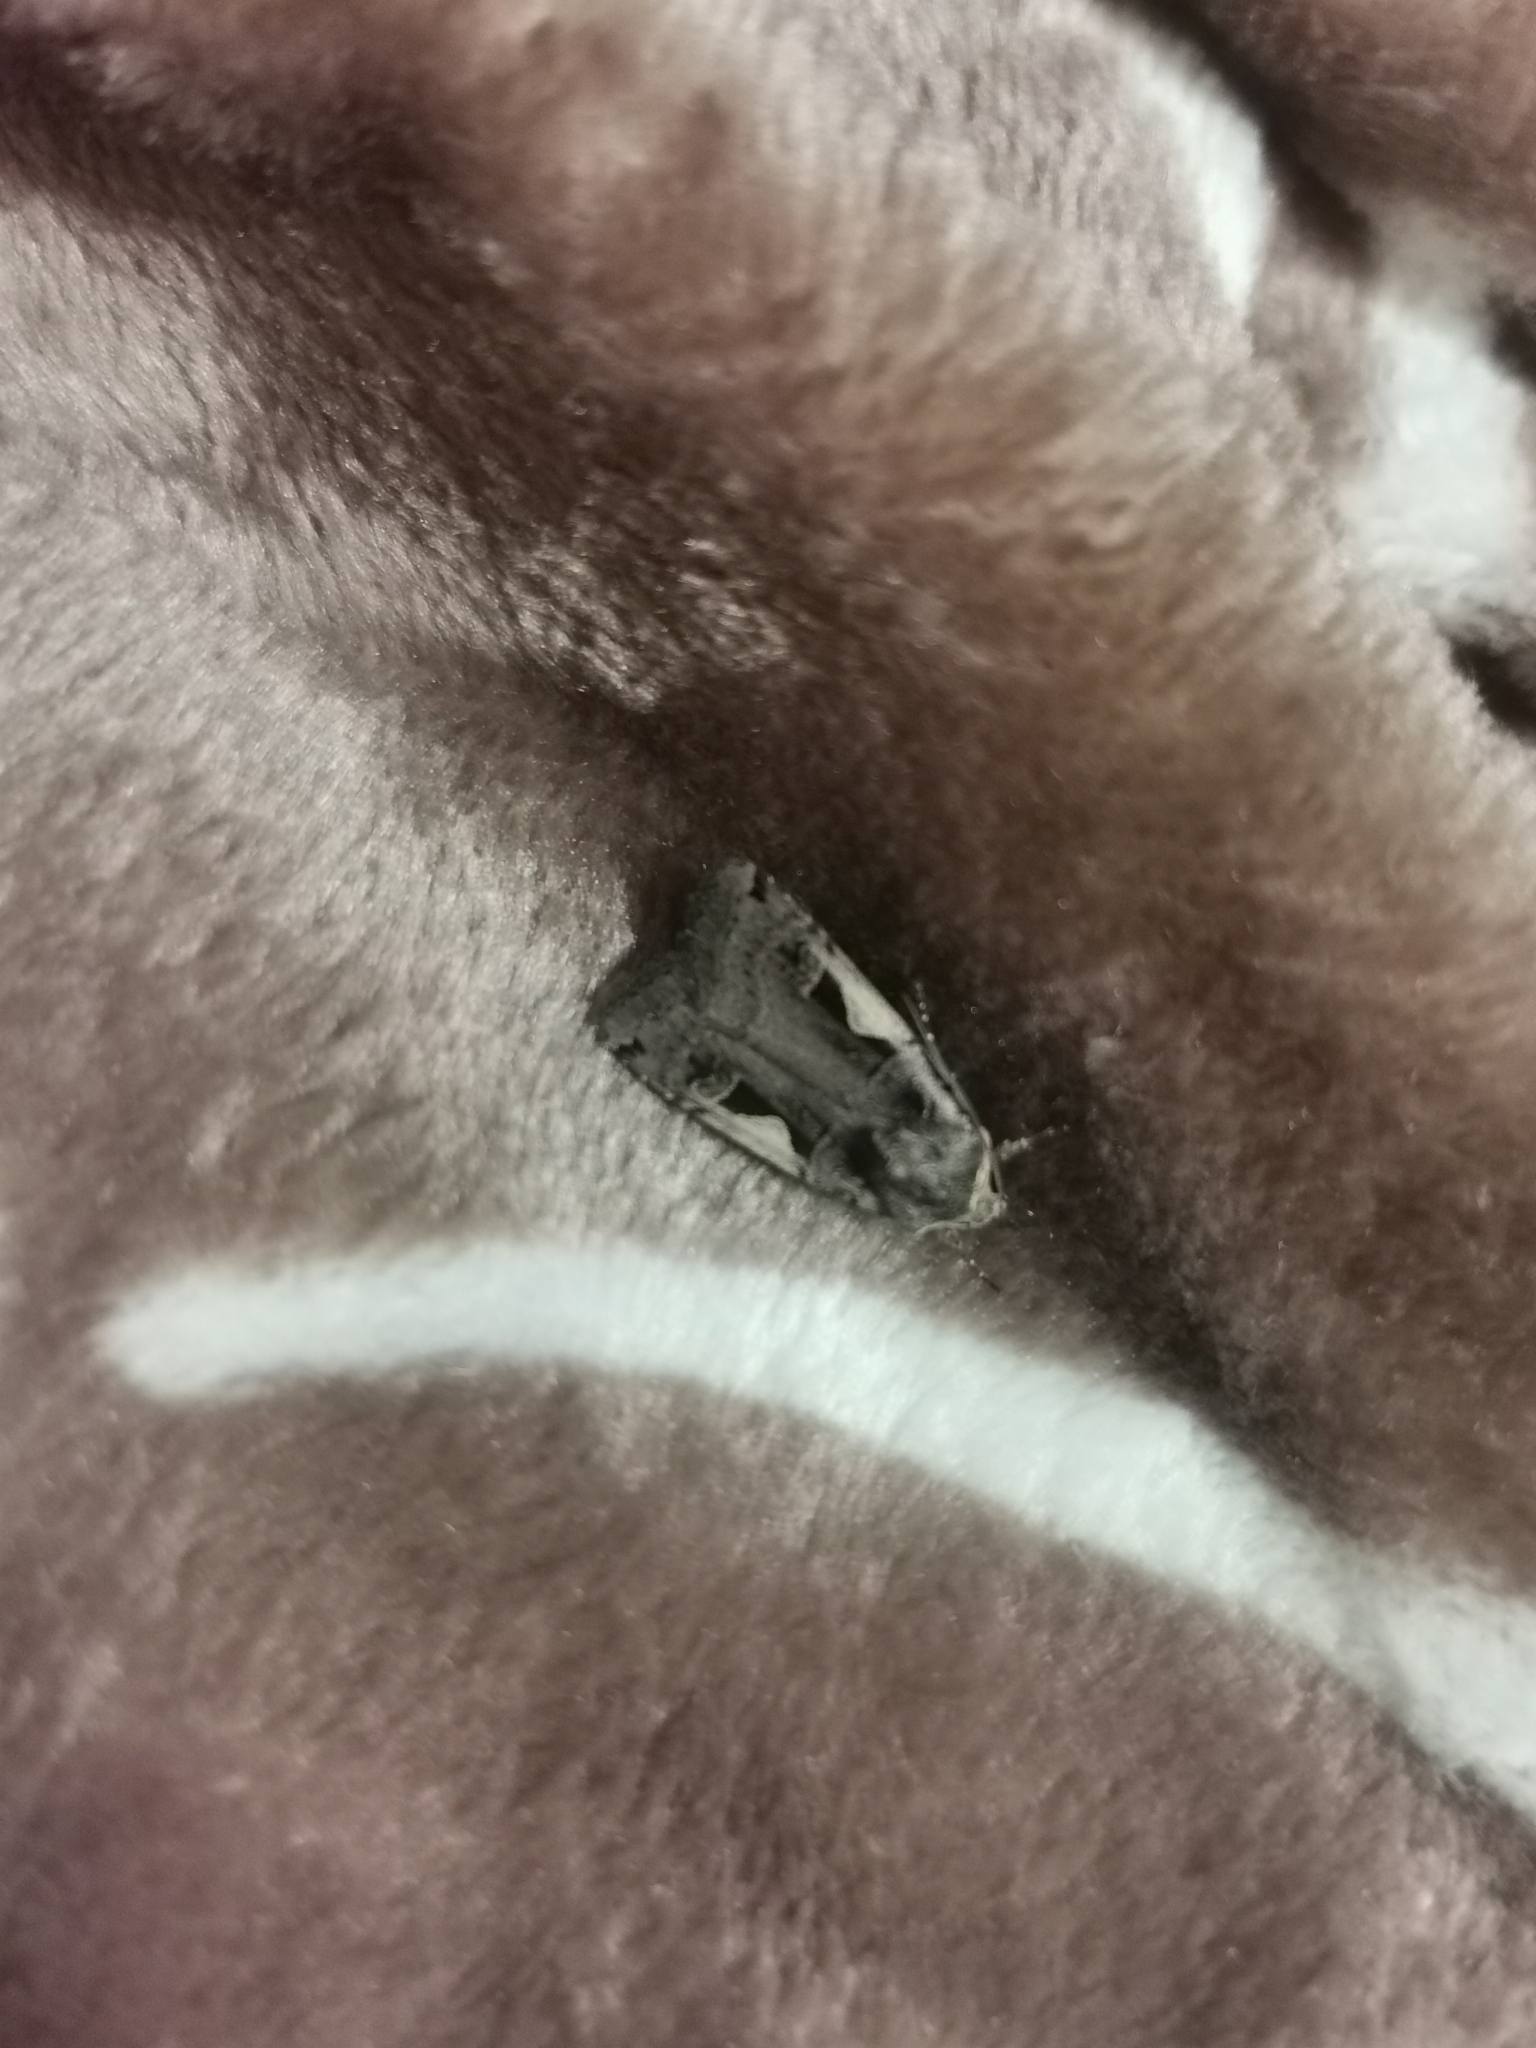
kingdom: Animalia
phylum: Arthropoda
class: Insecta
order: Lepidoptera
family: Noctuidae
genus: Xestia
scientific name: Xestia c-nigrum
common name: Setaceous hebrew character
